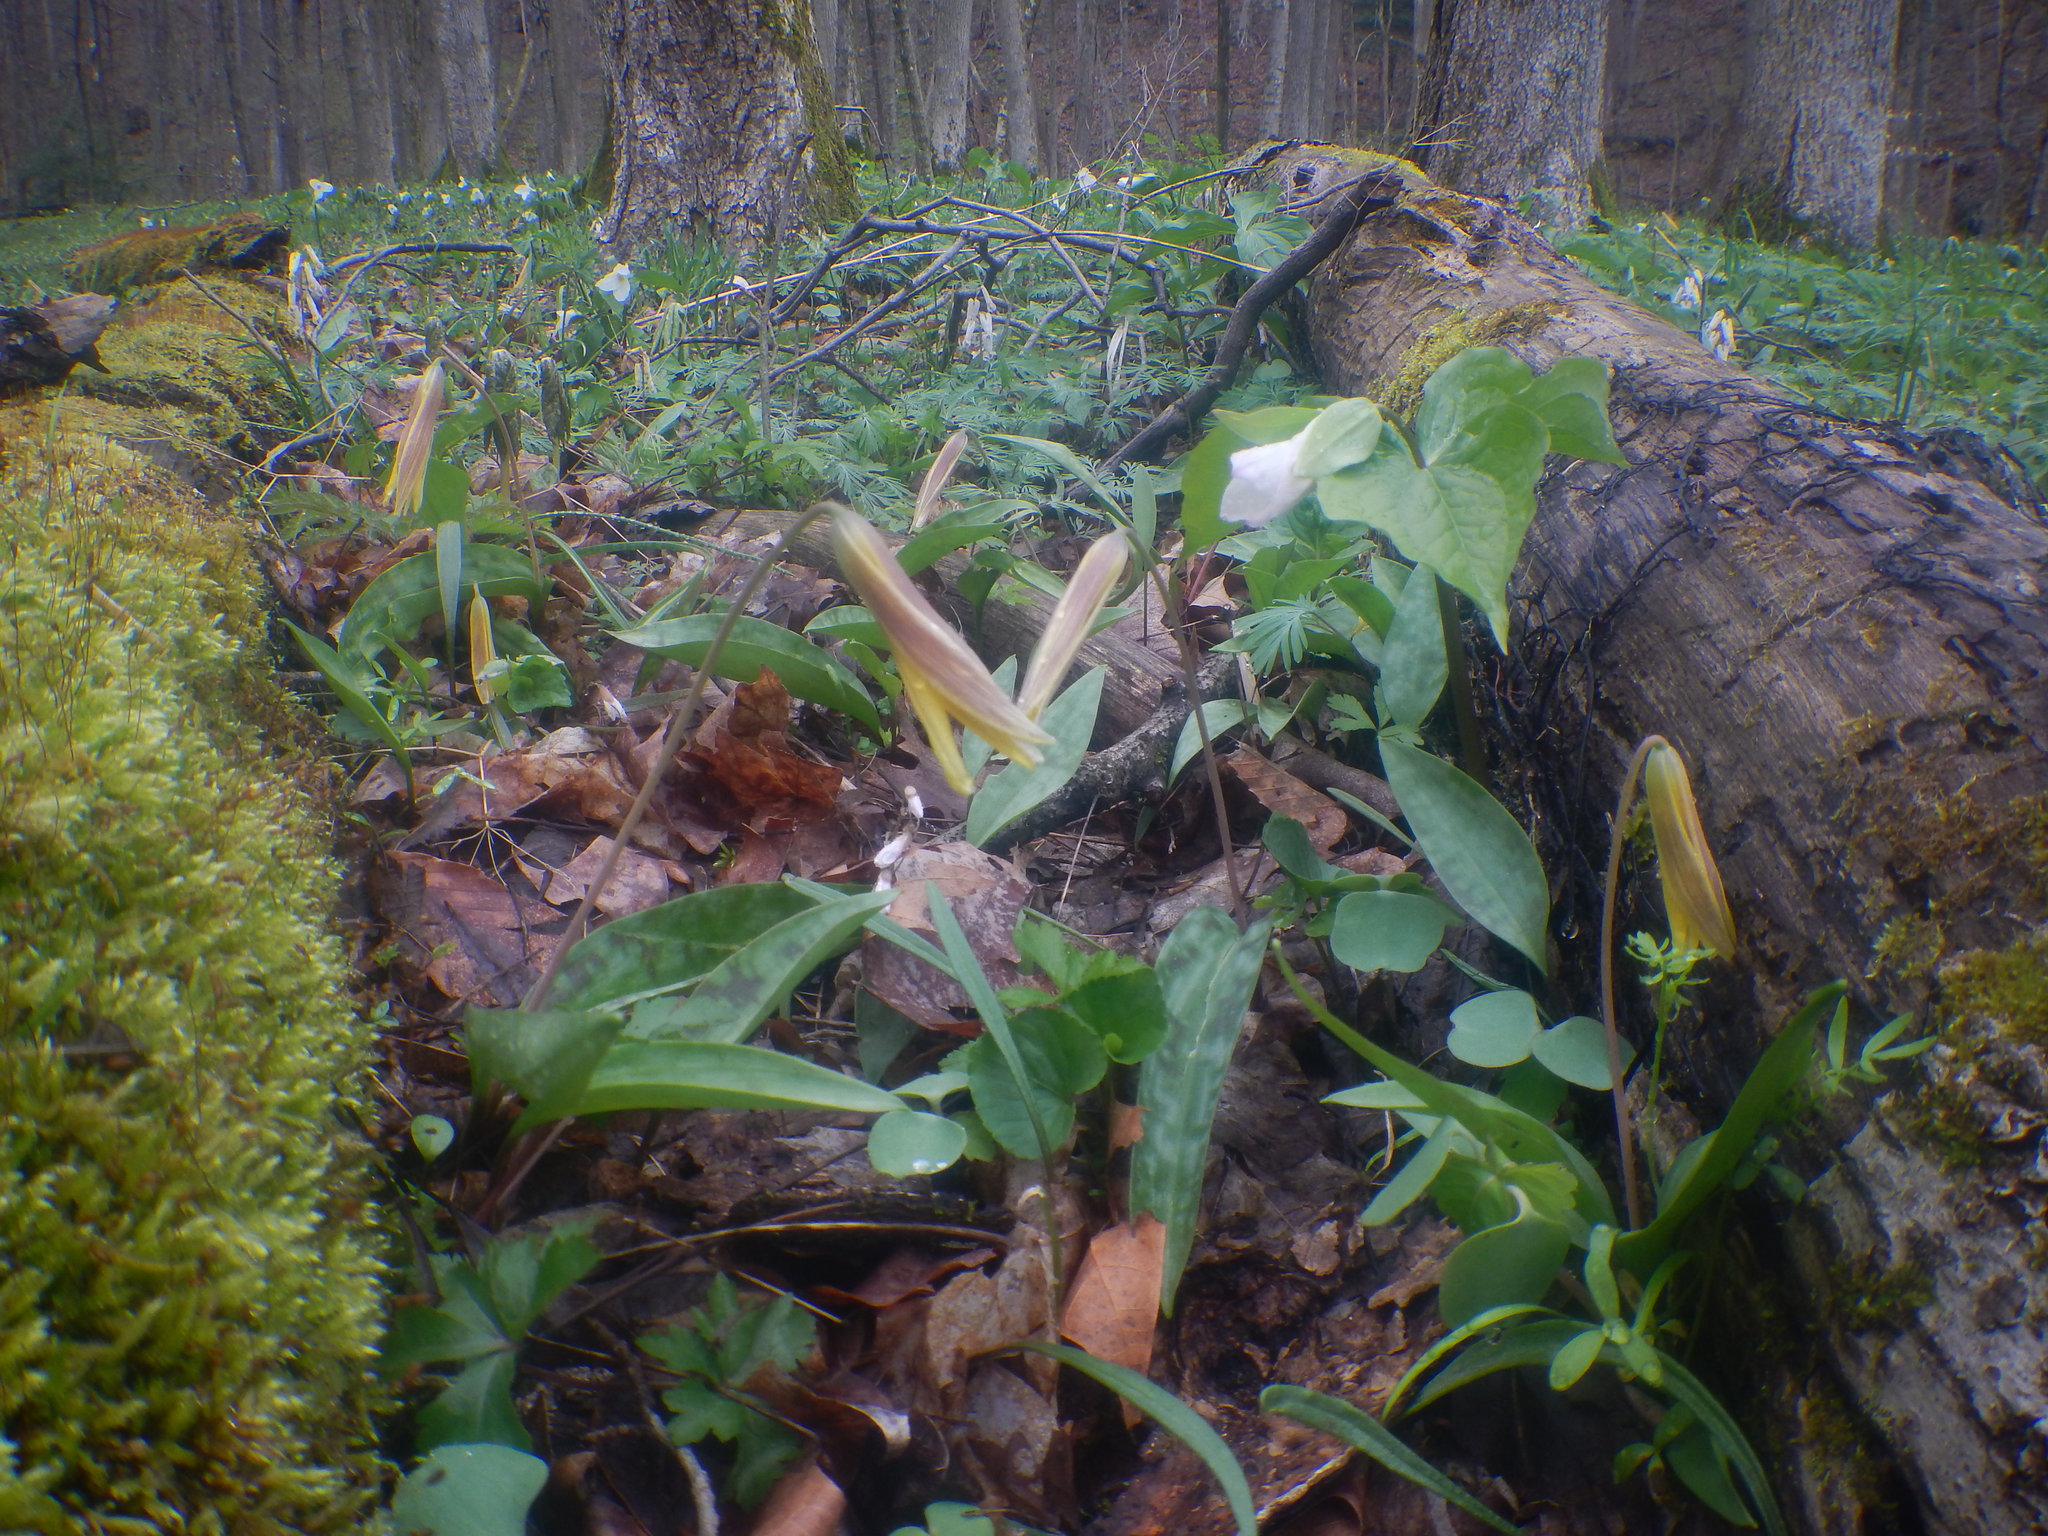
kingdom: Plantae
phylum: Tracheophyta
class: Liliopsida
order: Liliales
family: Liliaceae
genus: Erythronium
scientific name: Erythronium americanum
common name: Yellow adder's-tongue
